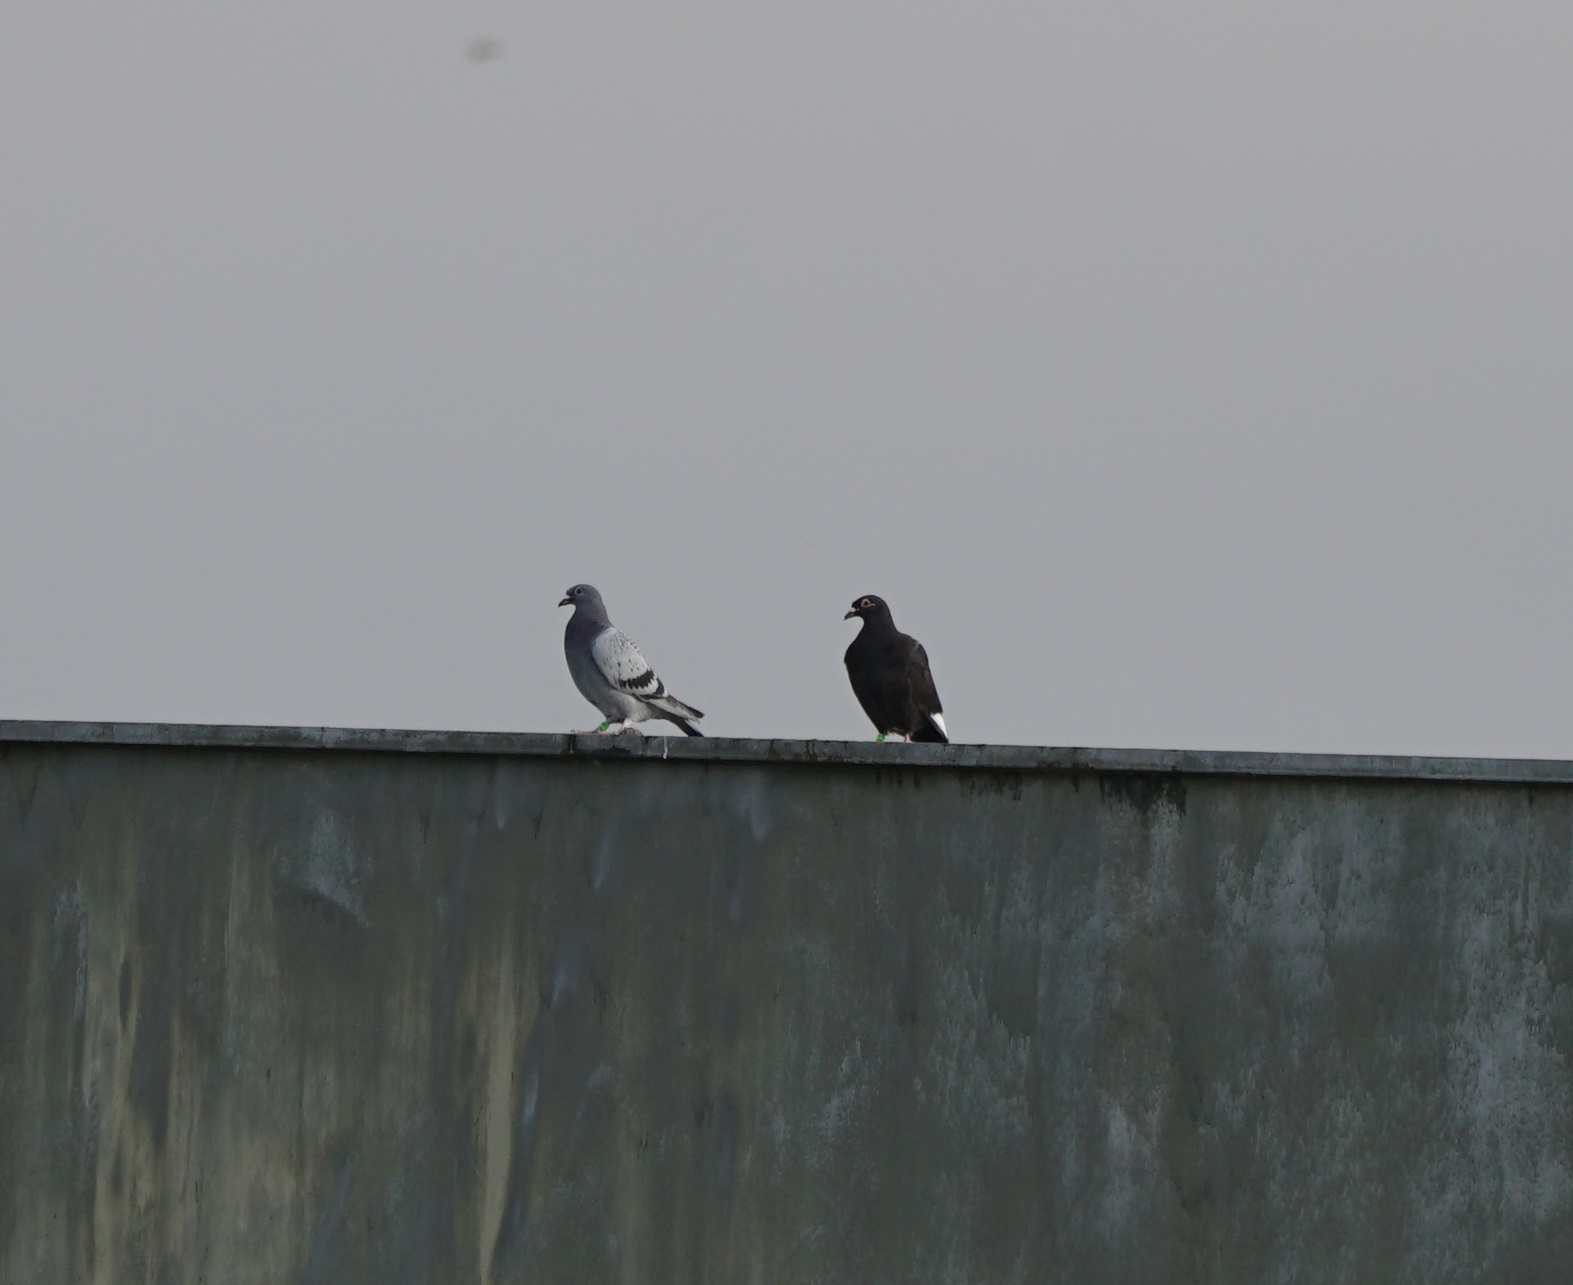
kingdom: Animalia
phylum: Chordata
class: Aves
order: Columbiformes
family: Columbidae
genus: Columba
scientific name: Columba livia
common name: Rock pigeon
